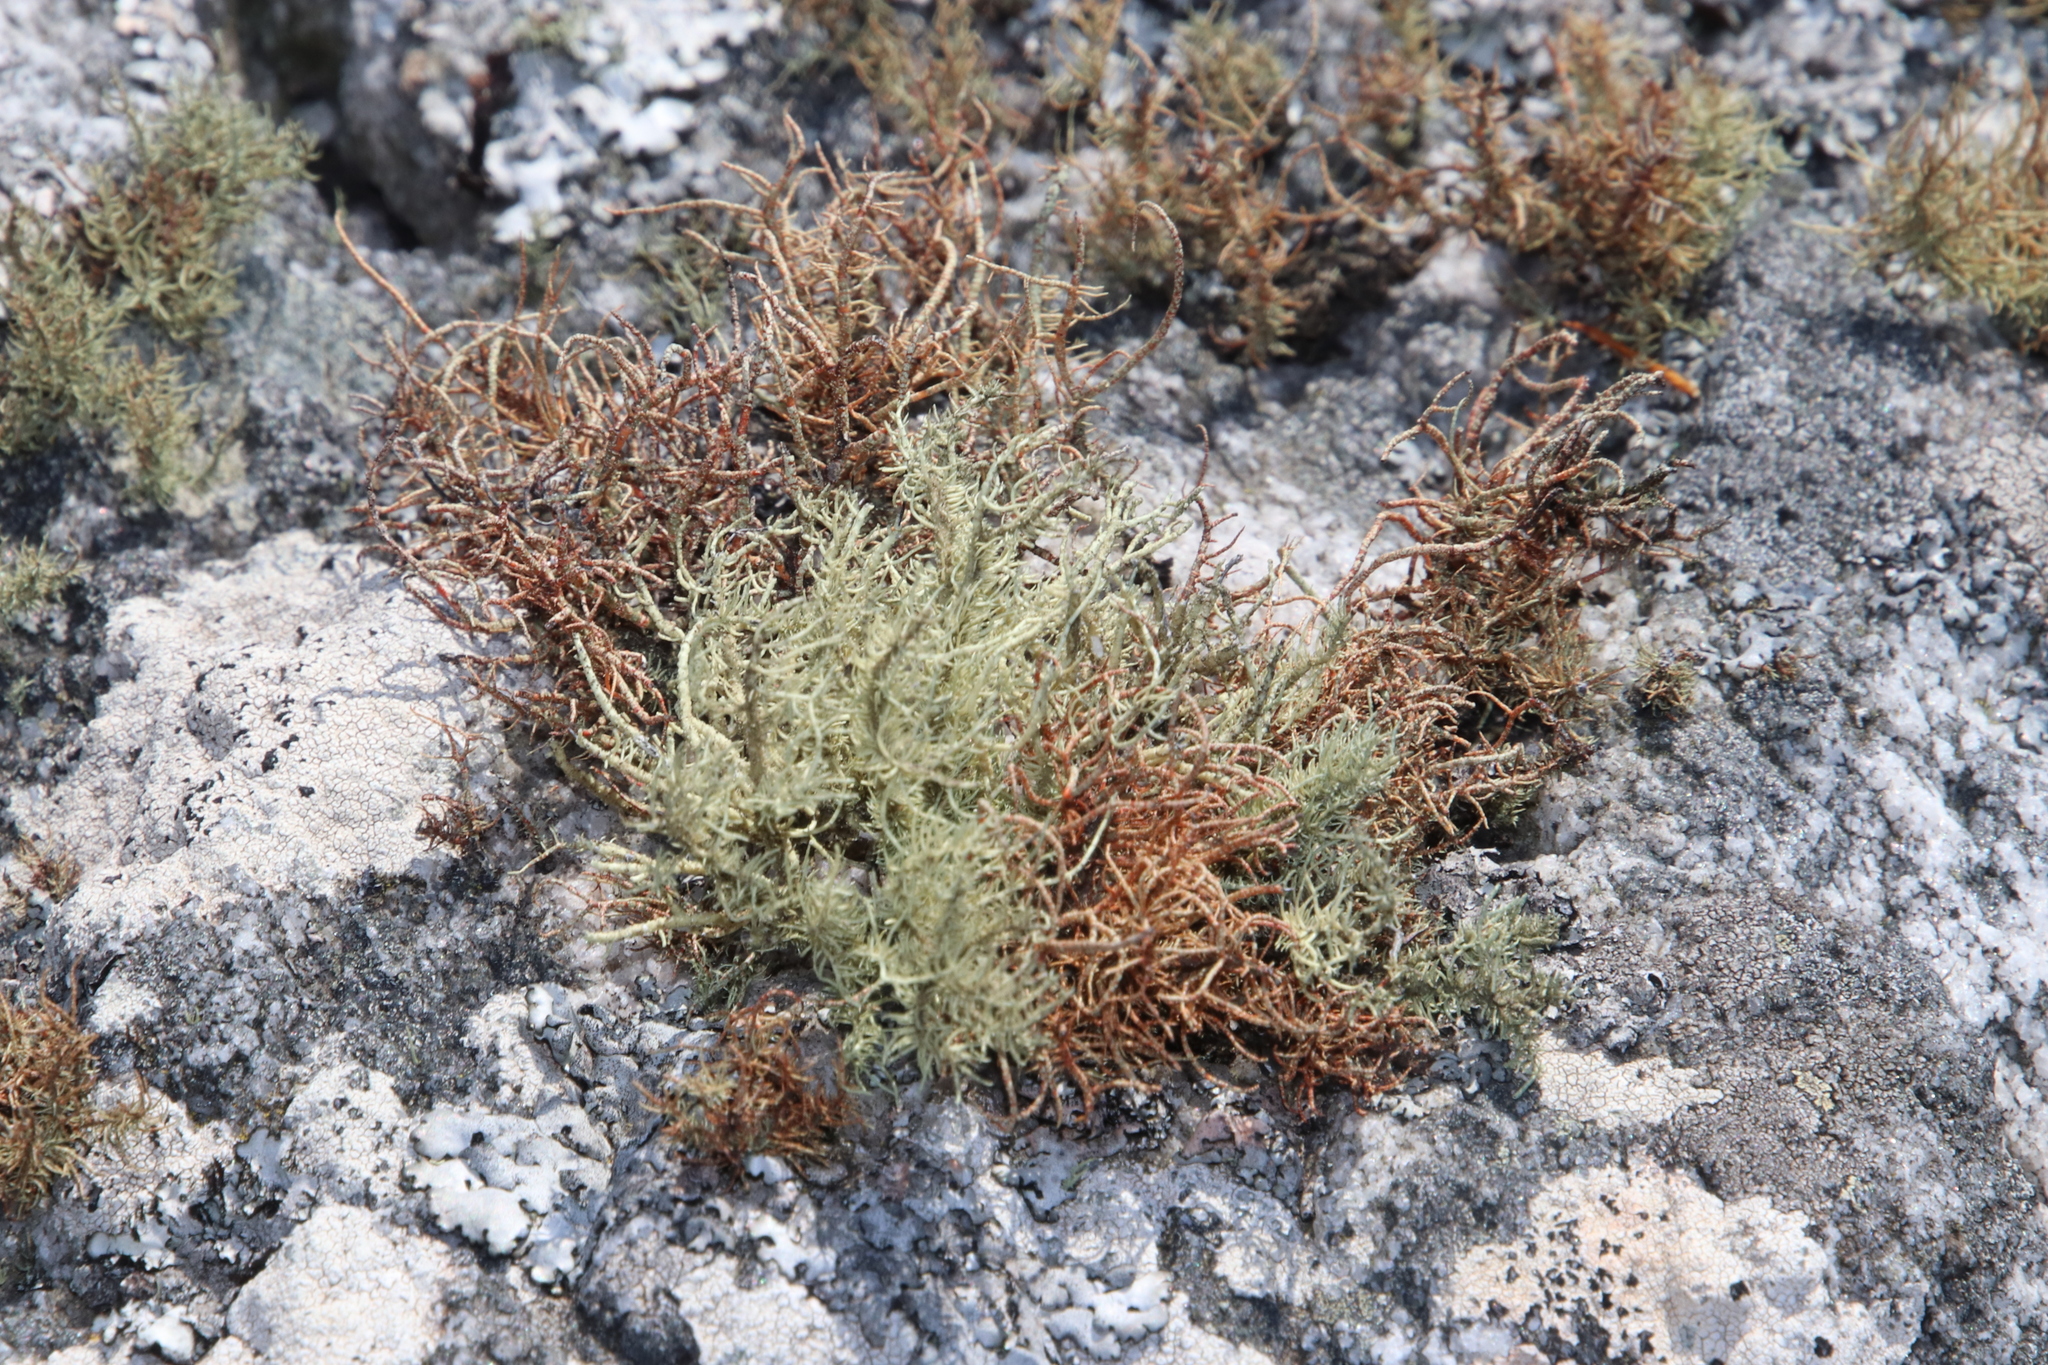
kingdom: Fungi
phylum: Ascomycota
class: Lecanoromycetes
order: Lecanorales
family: Parmeliaceae
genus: Usnea
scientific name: Usnea pulvinata
